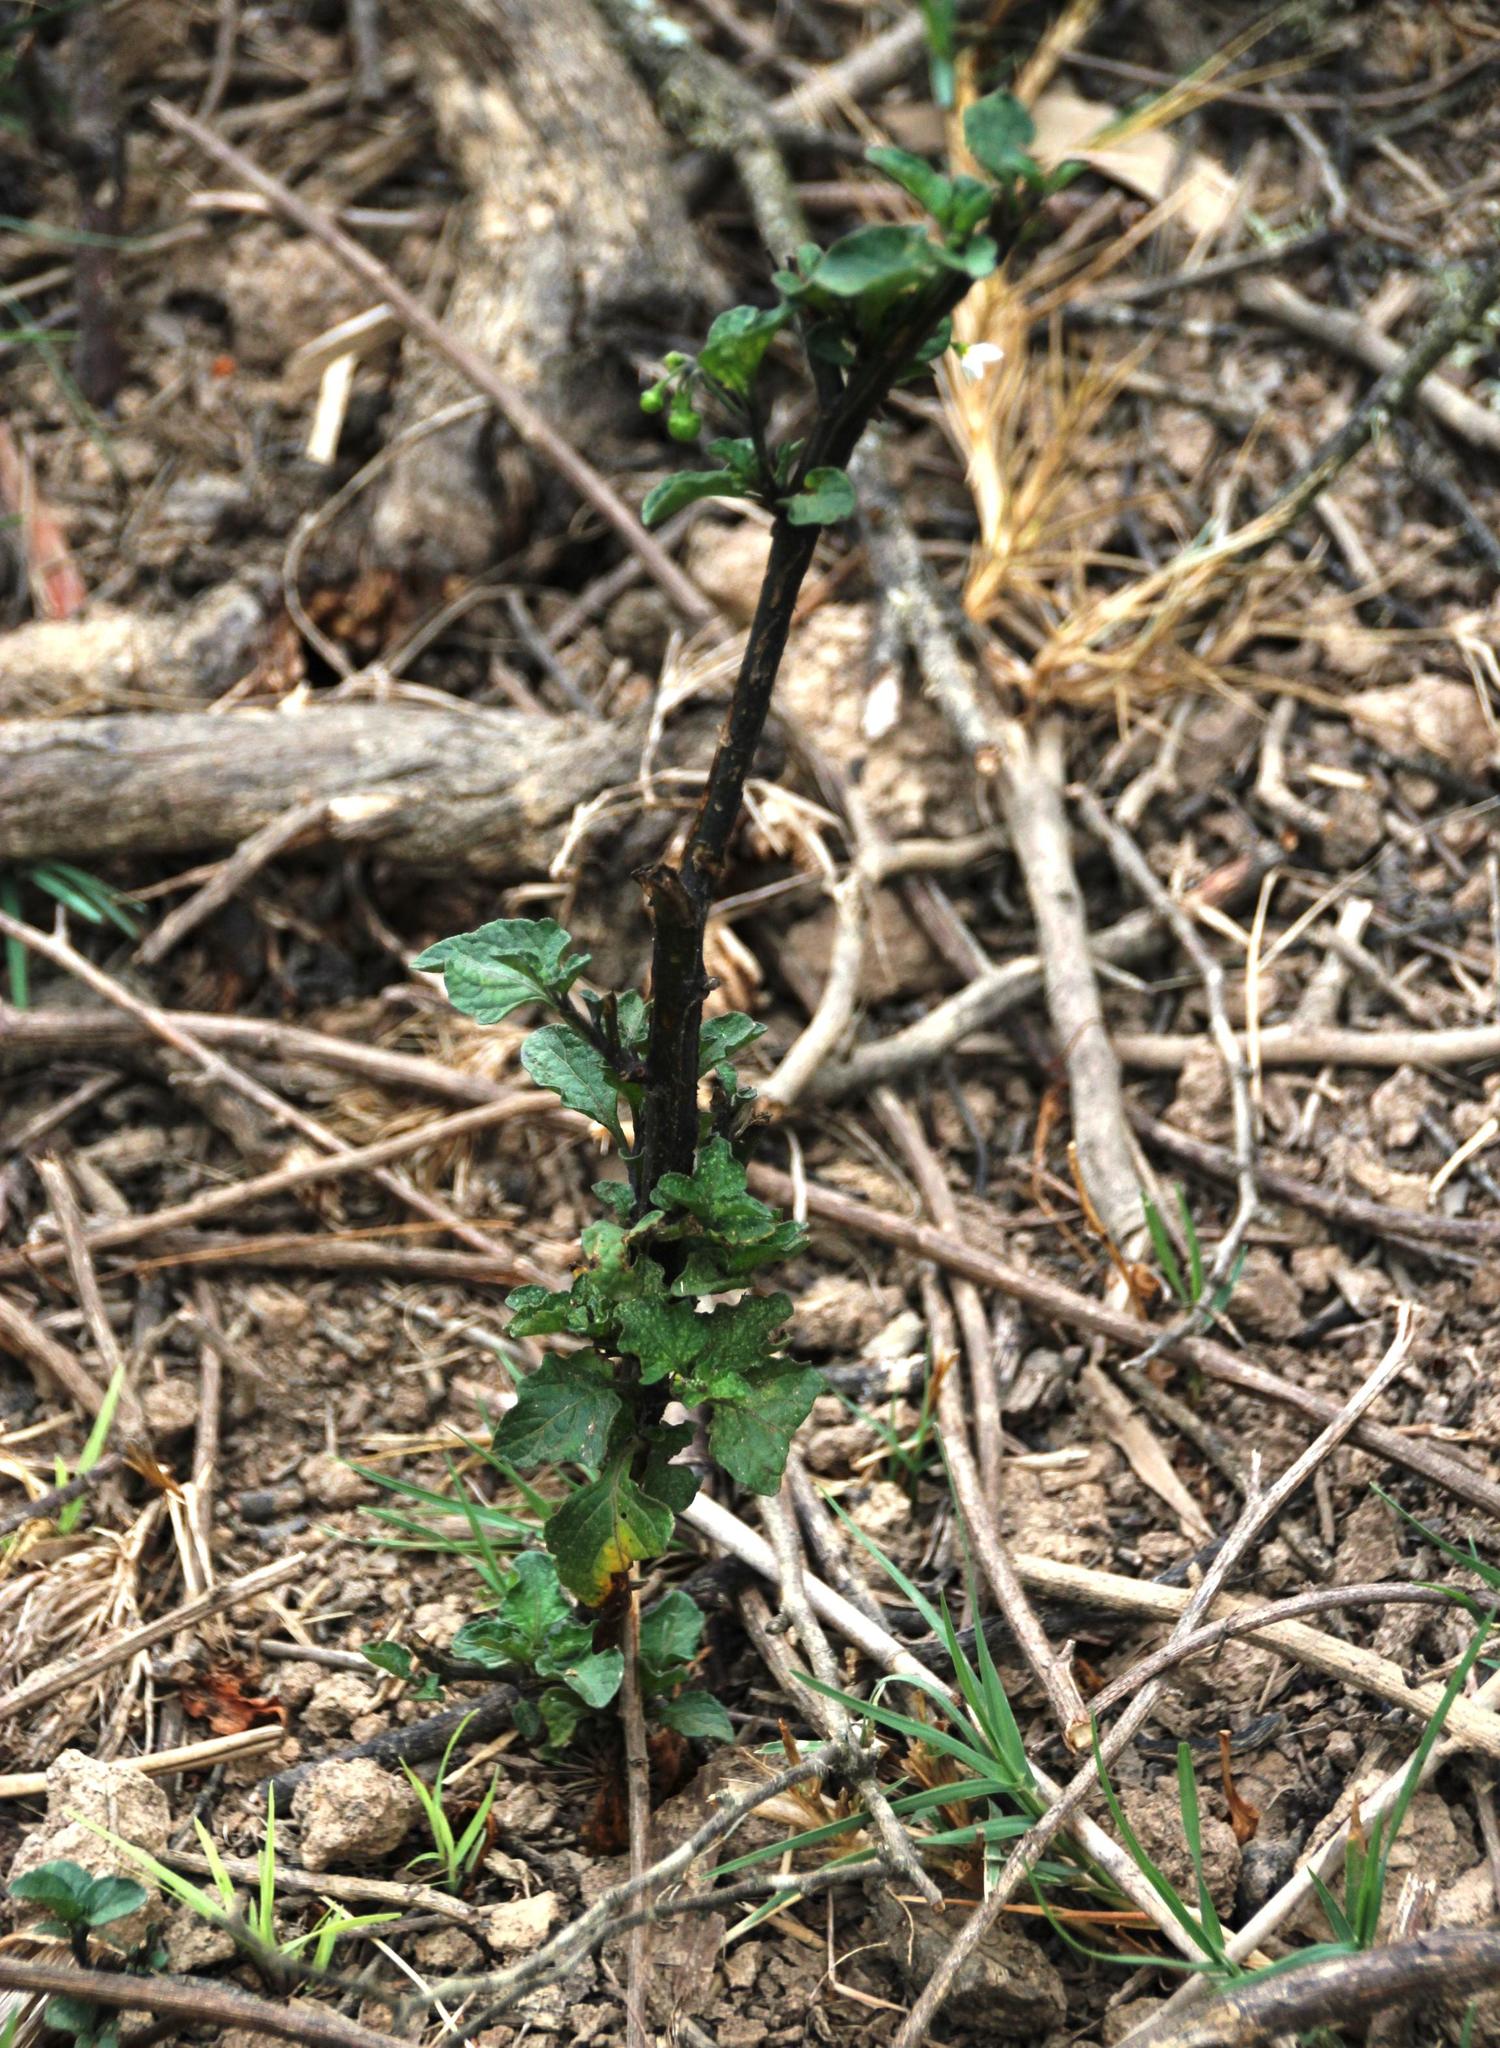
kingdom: Plantae
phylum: Tracheophyta
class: Magnoliopsida
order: Solanales
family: Solanaceae
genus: Solanum
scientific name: Solanum nigrum
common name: Black nightshade
